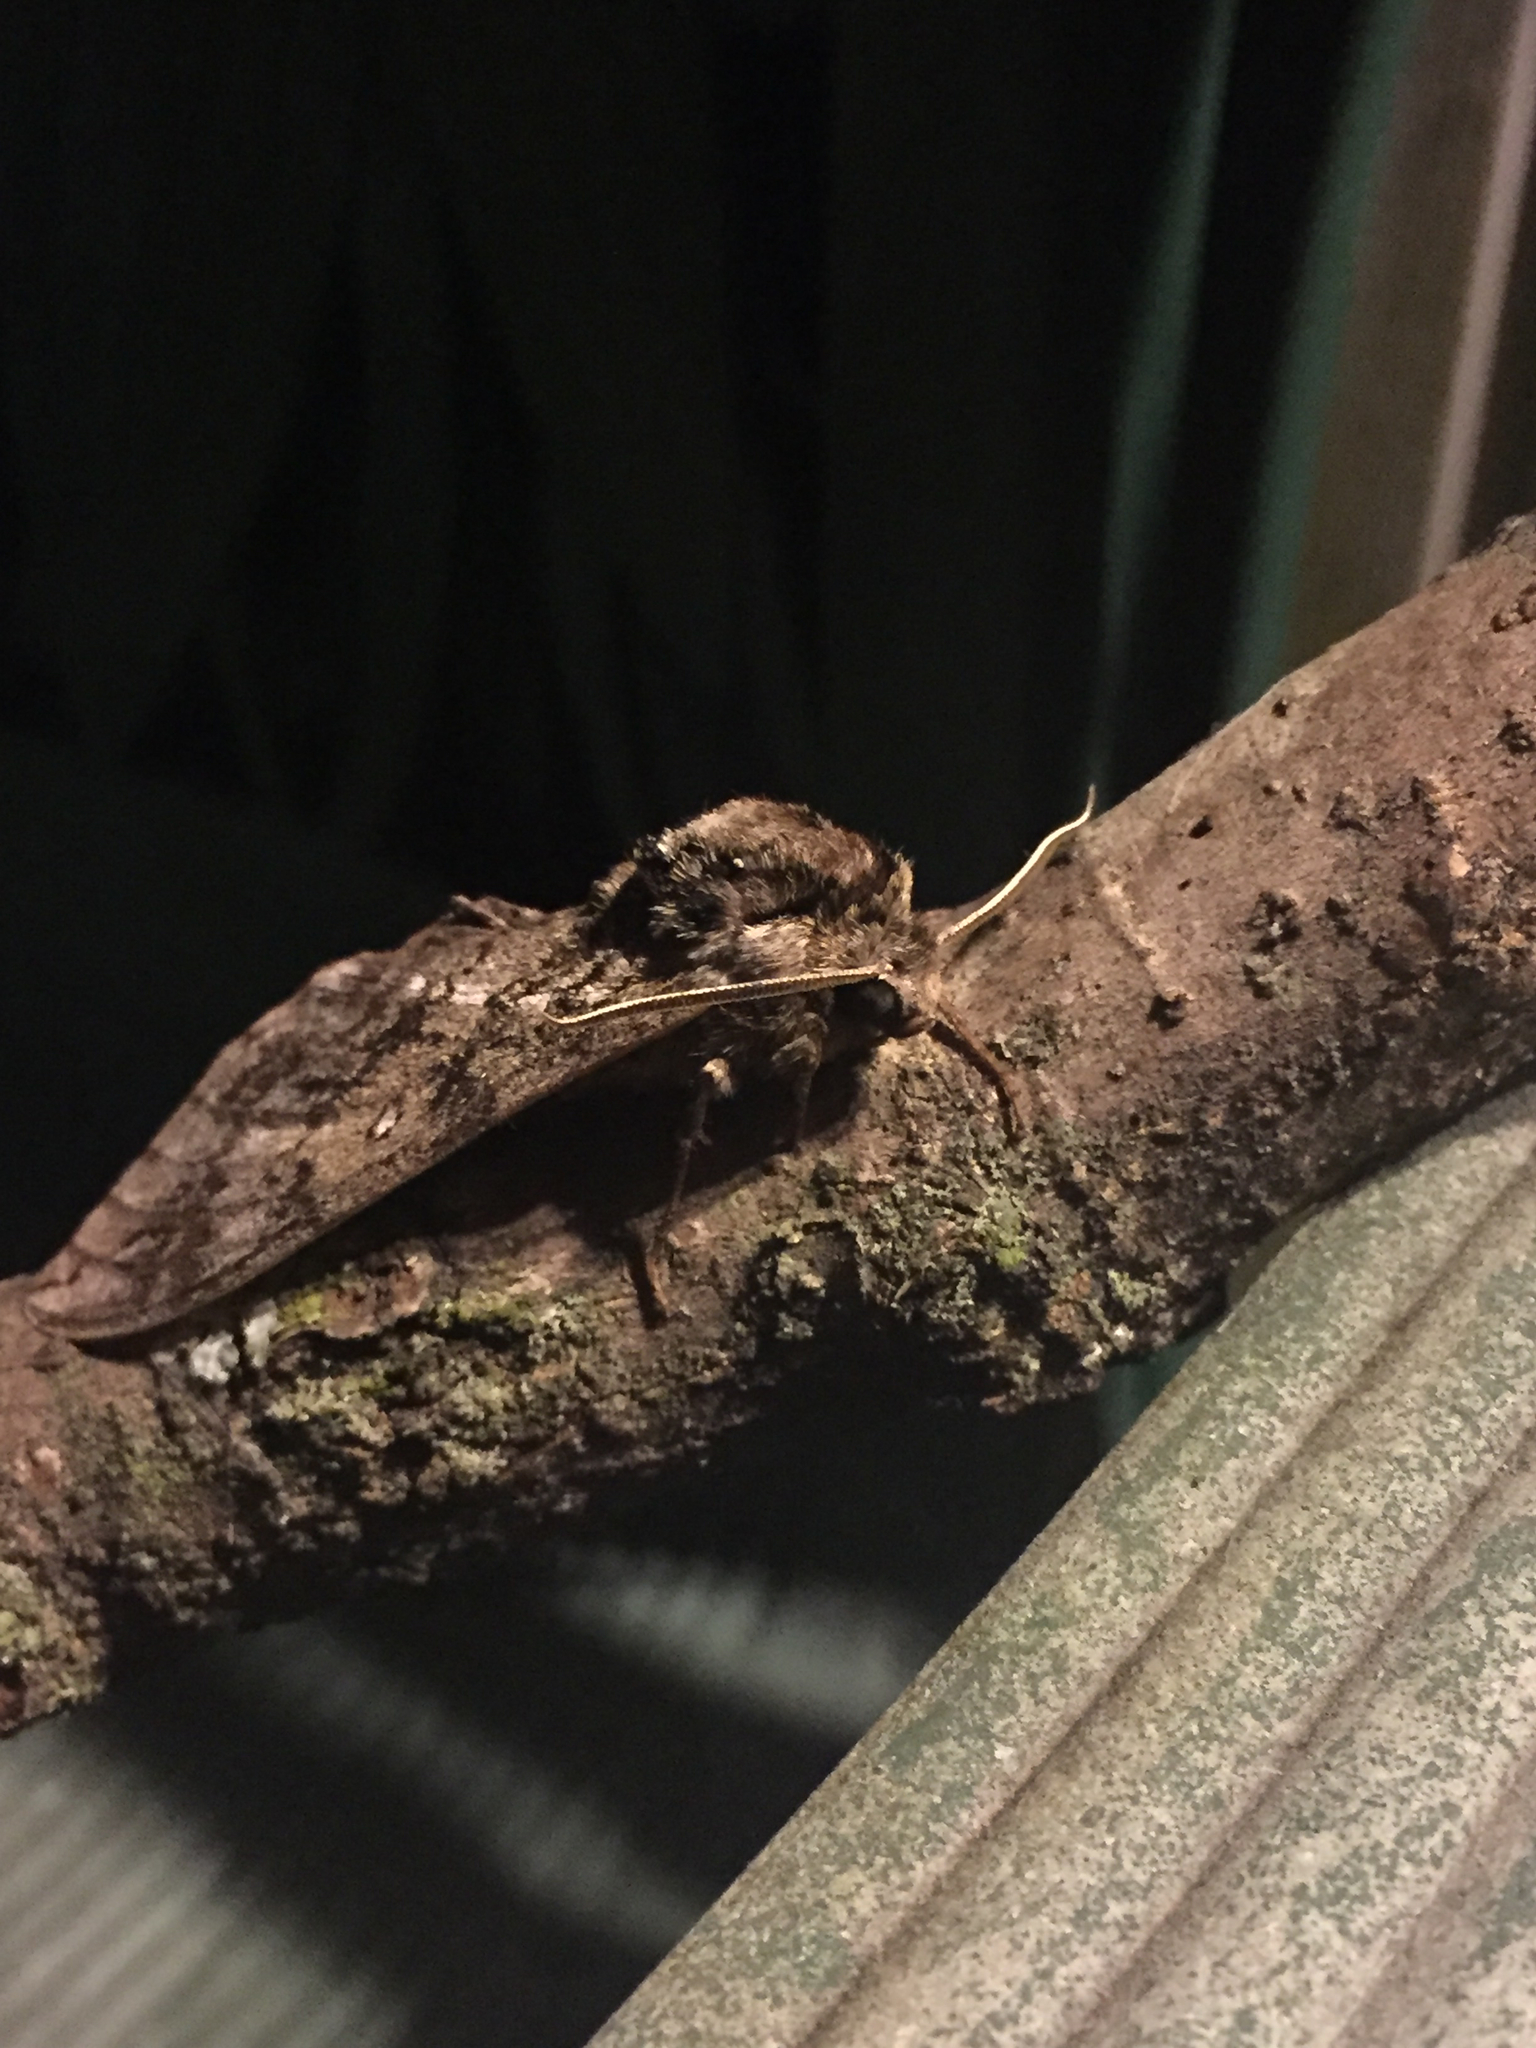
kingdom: Animalia
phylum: Arthropoda
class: Insecta
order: Lepidoptera
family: Sphingidae
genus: Ceratomia
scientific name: Ceratomia undulosa
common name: Waved sphinx
